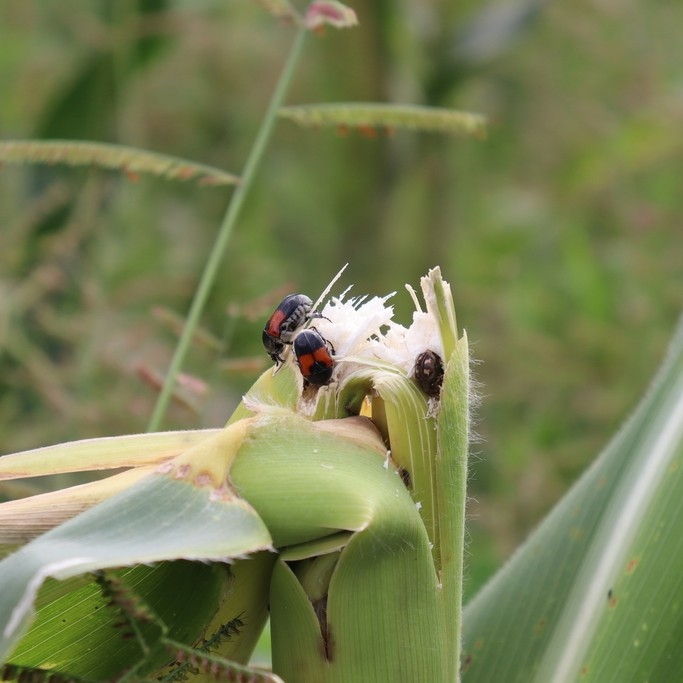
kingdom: Animalia
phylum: Arthropoda
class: Insecta
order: Coleoptera
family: Scarabaeidae
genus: Euphoria
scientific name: Euphoria dimidiata
